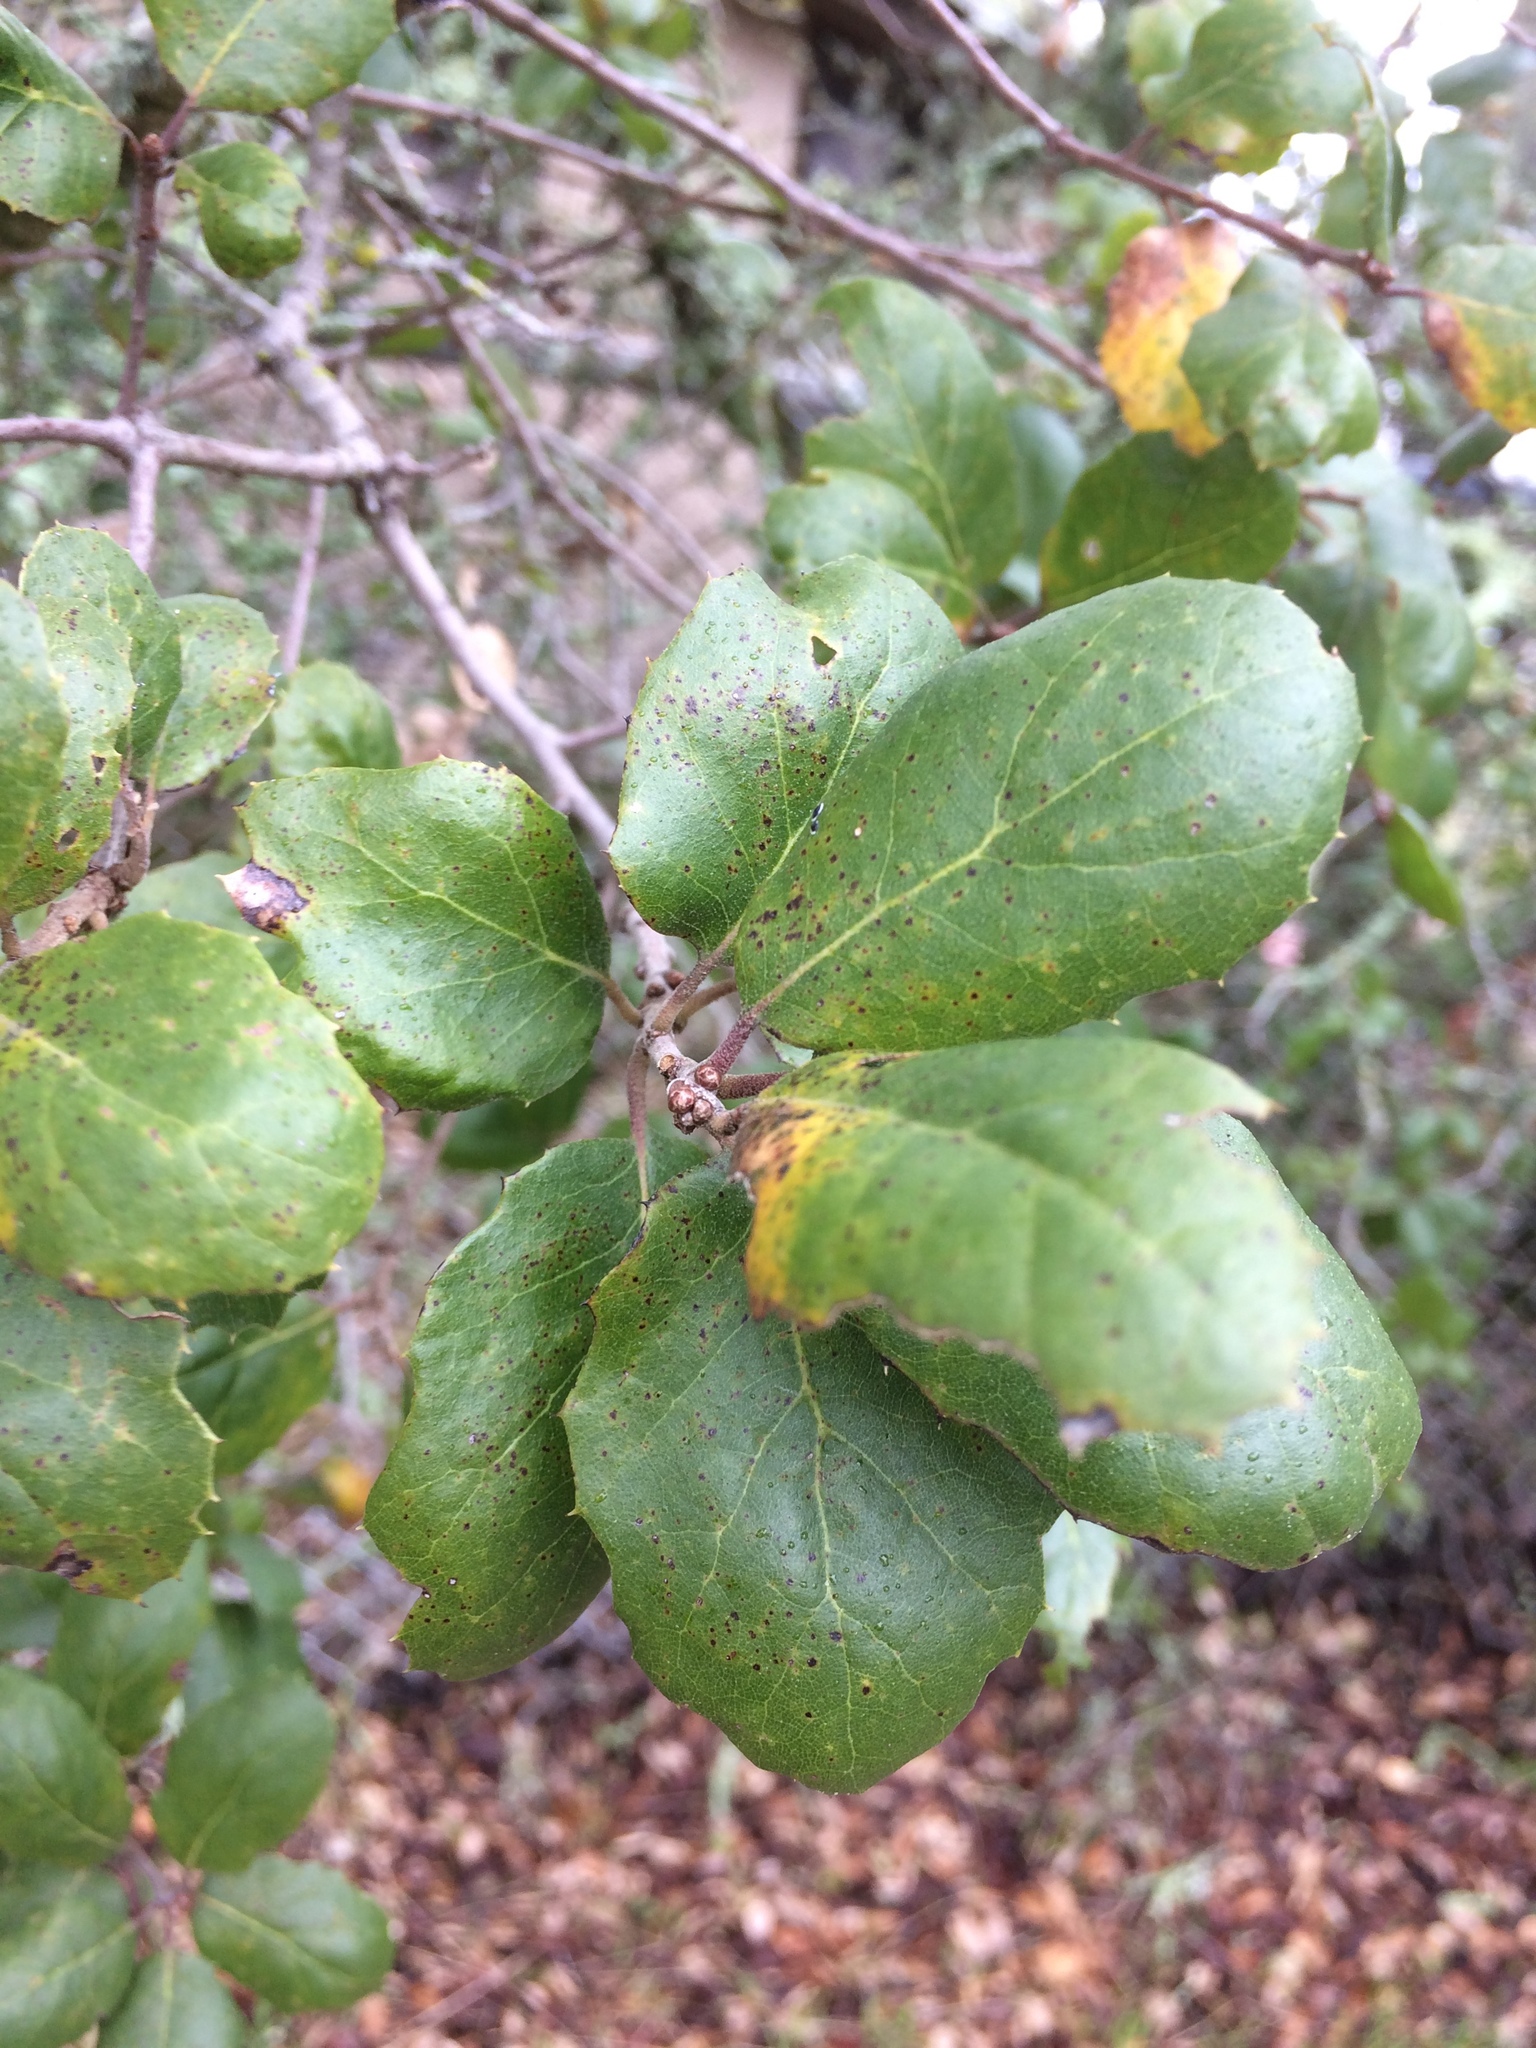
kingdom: Plantae
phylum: Tracheophyta
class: Magnoliopsida
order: Fagales
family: Fagaceae
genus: Quercus
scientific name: Quercus agrifolia
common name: California live oak
